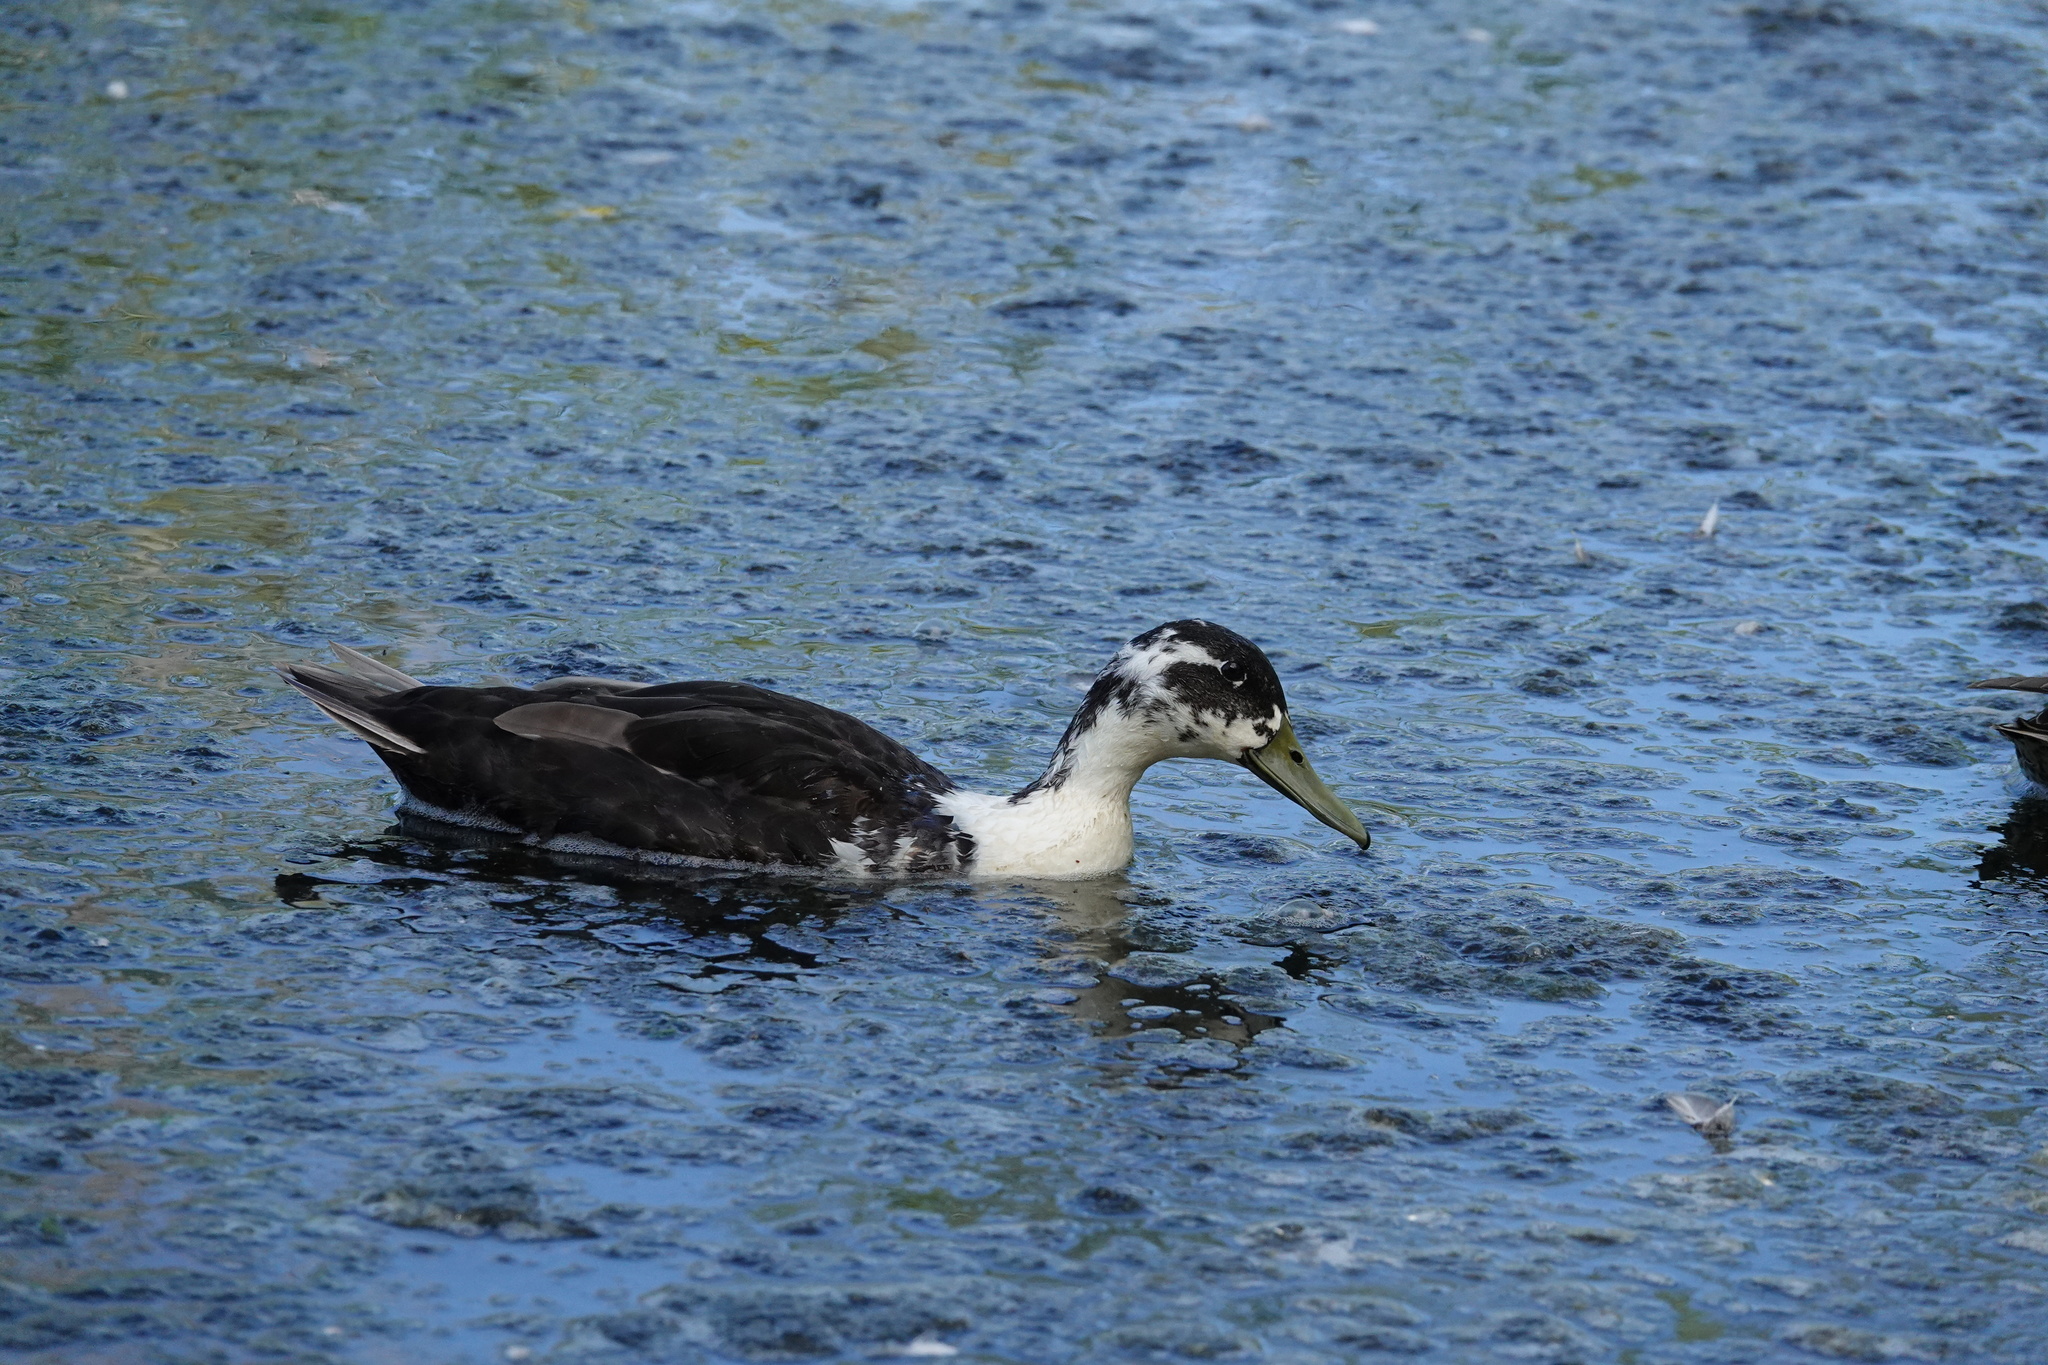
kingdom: Animalia
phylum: Chordata
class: Aves
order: Anseriformes
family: Anatidae
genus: Anas
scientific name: Anas platyrhynchos
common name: Mallard
